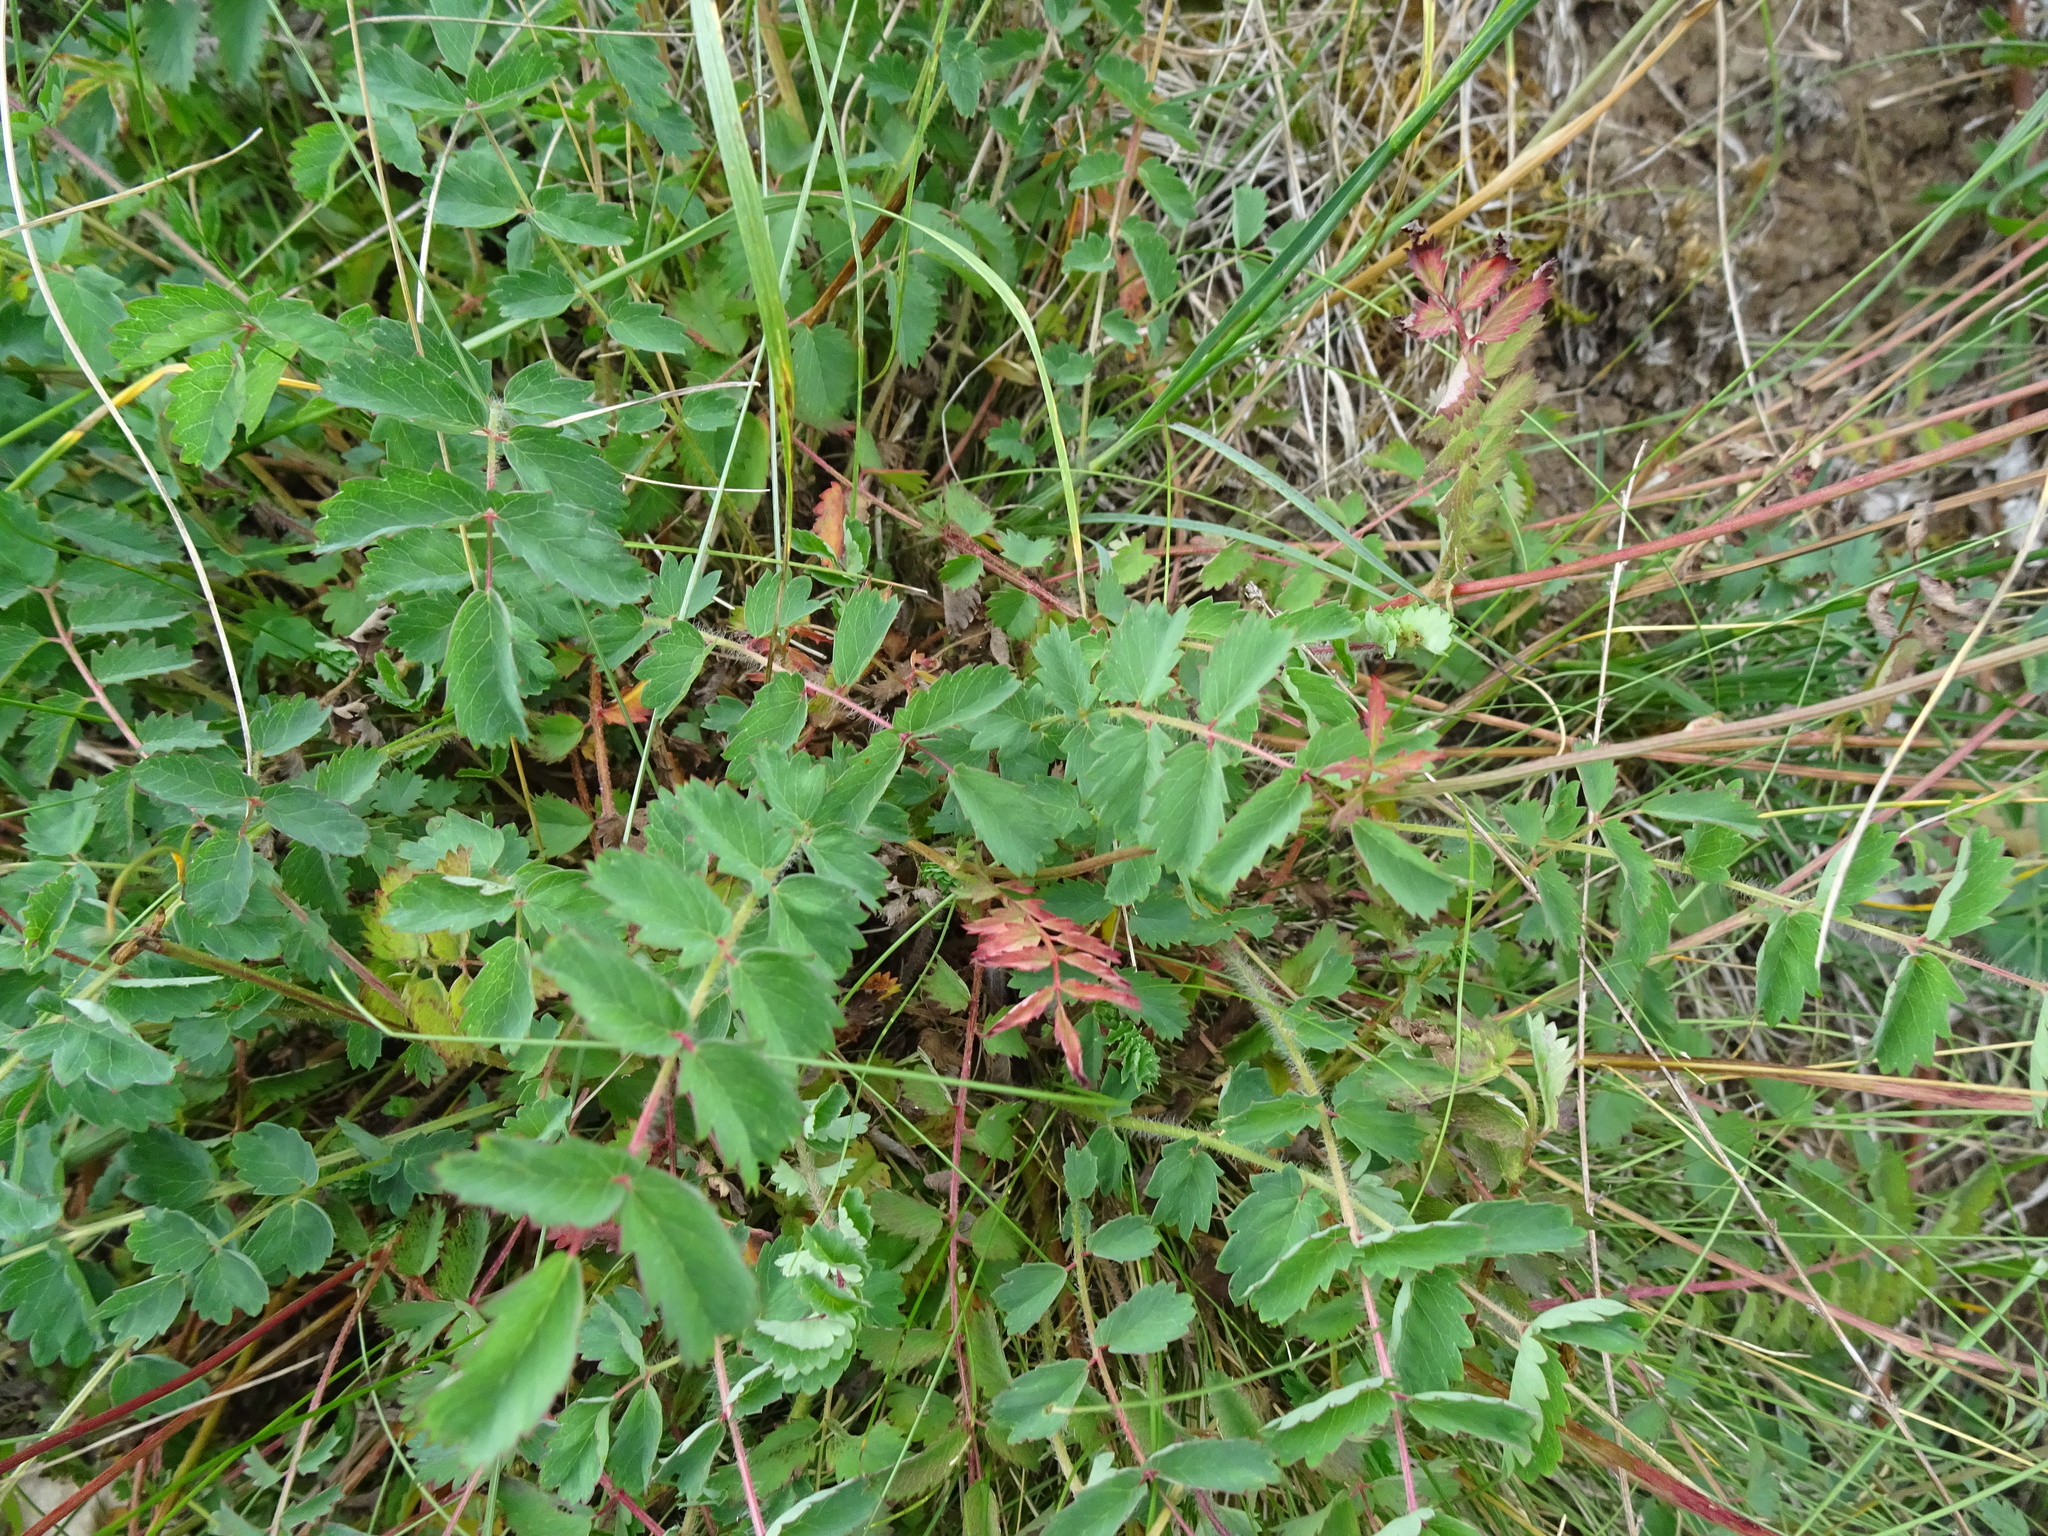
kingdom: Plantae
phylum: Tracheophyta
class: Magnoliopsida
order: Rosales
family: Rosaceae
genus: Poterium
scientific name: Poterium sanguisorba
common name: Salad burnet
